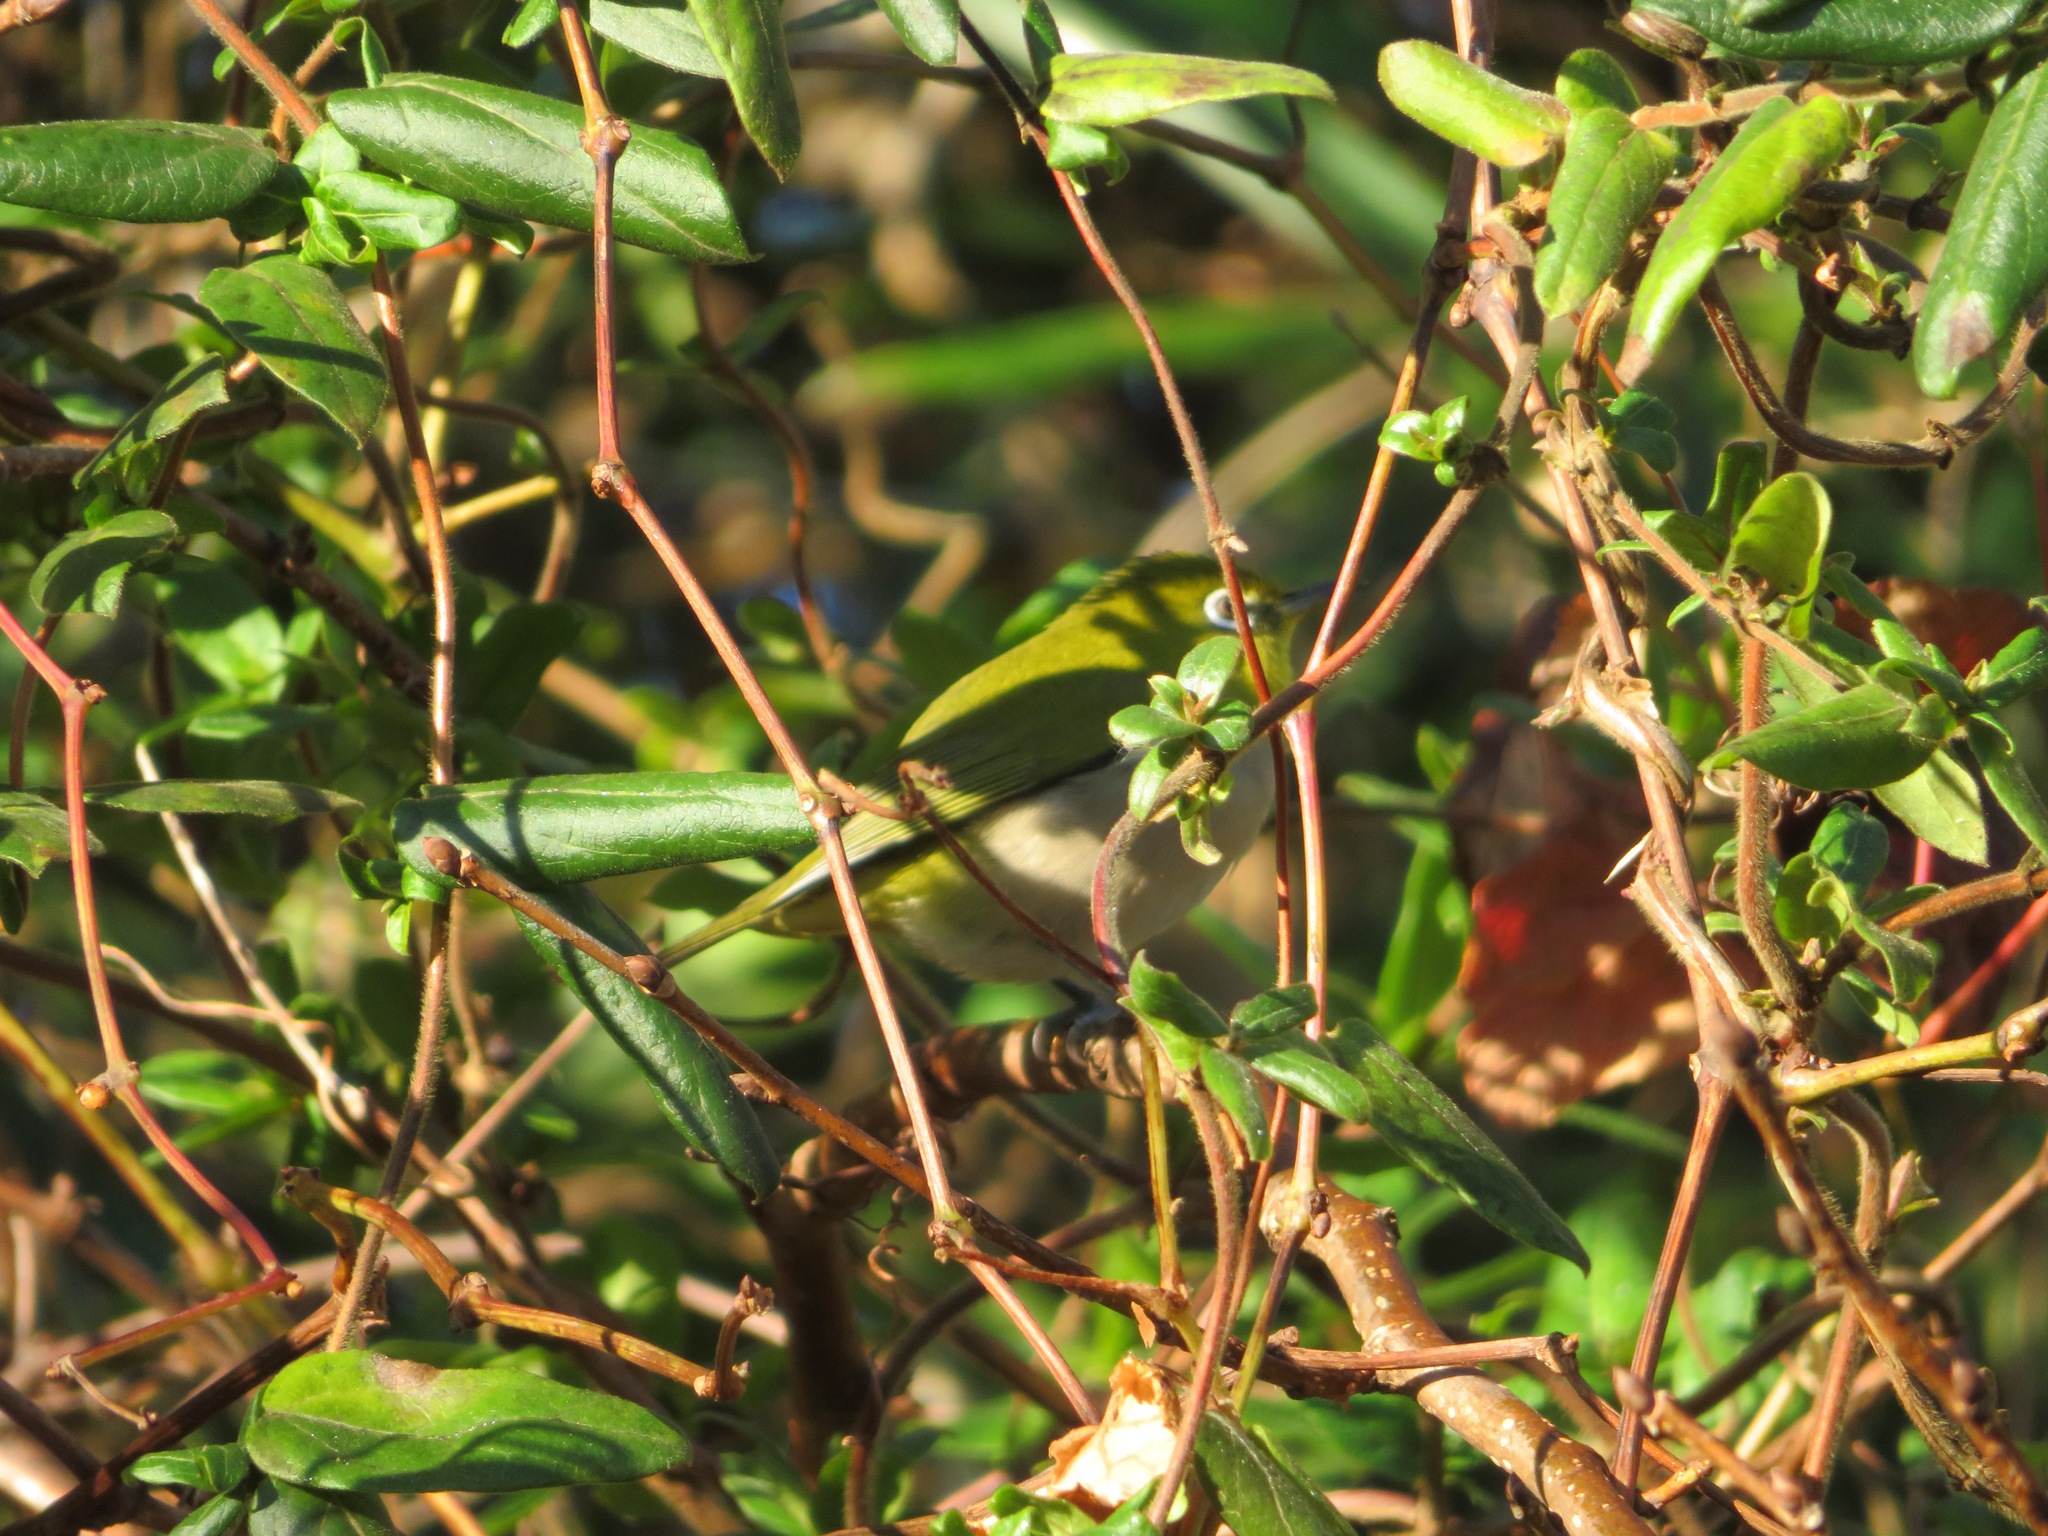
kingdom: Animalia
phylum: Chordata
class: Aves
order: Passeriformes
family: Zosteropidae
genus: Zosterops
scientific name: Zosterops japonicus
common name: Japanese white-eye
